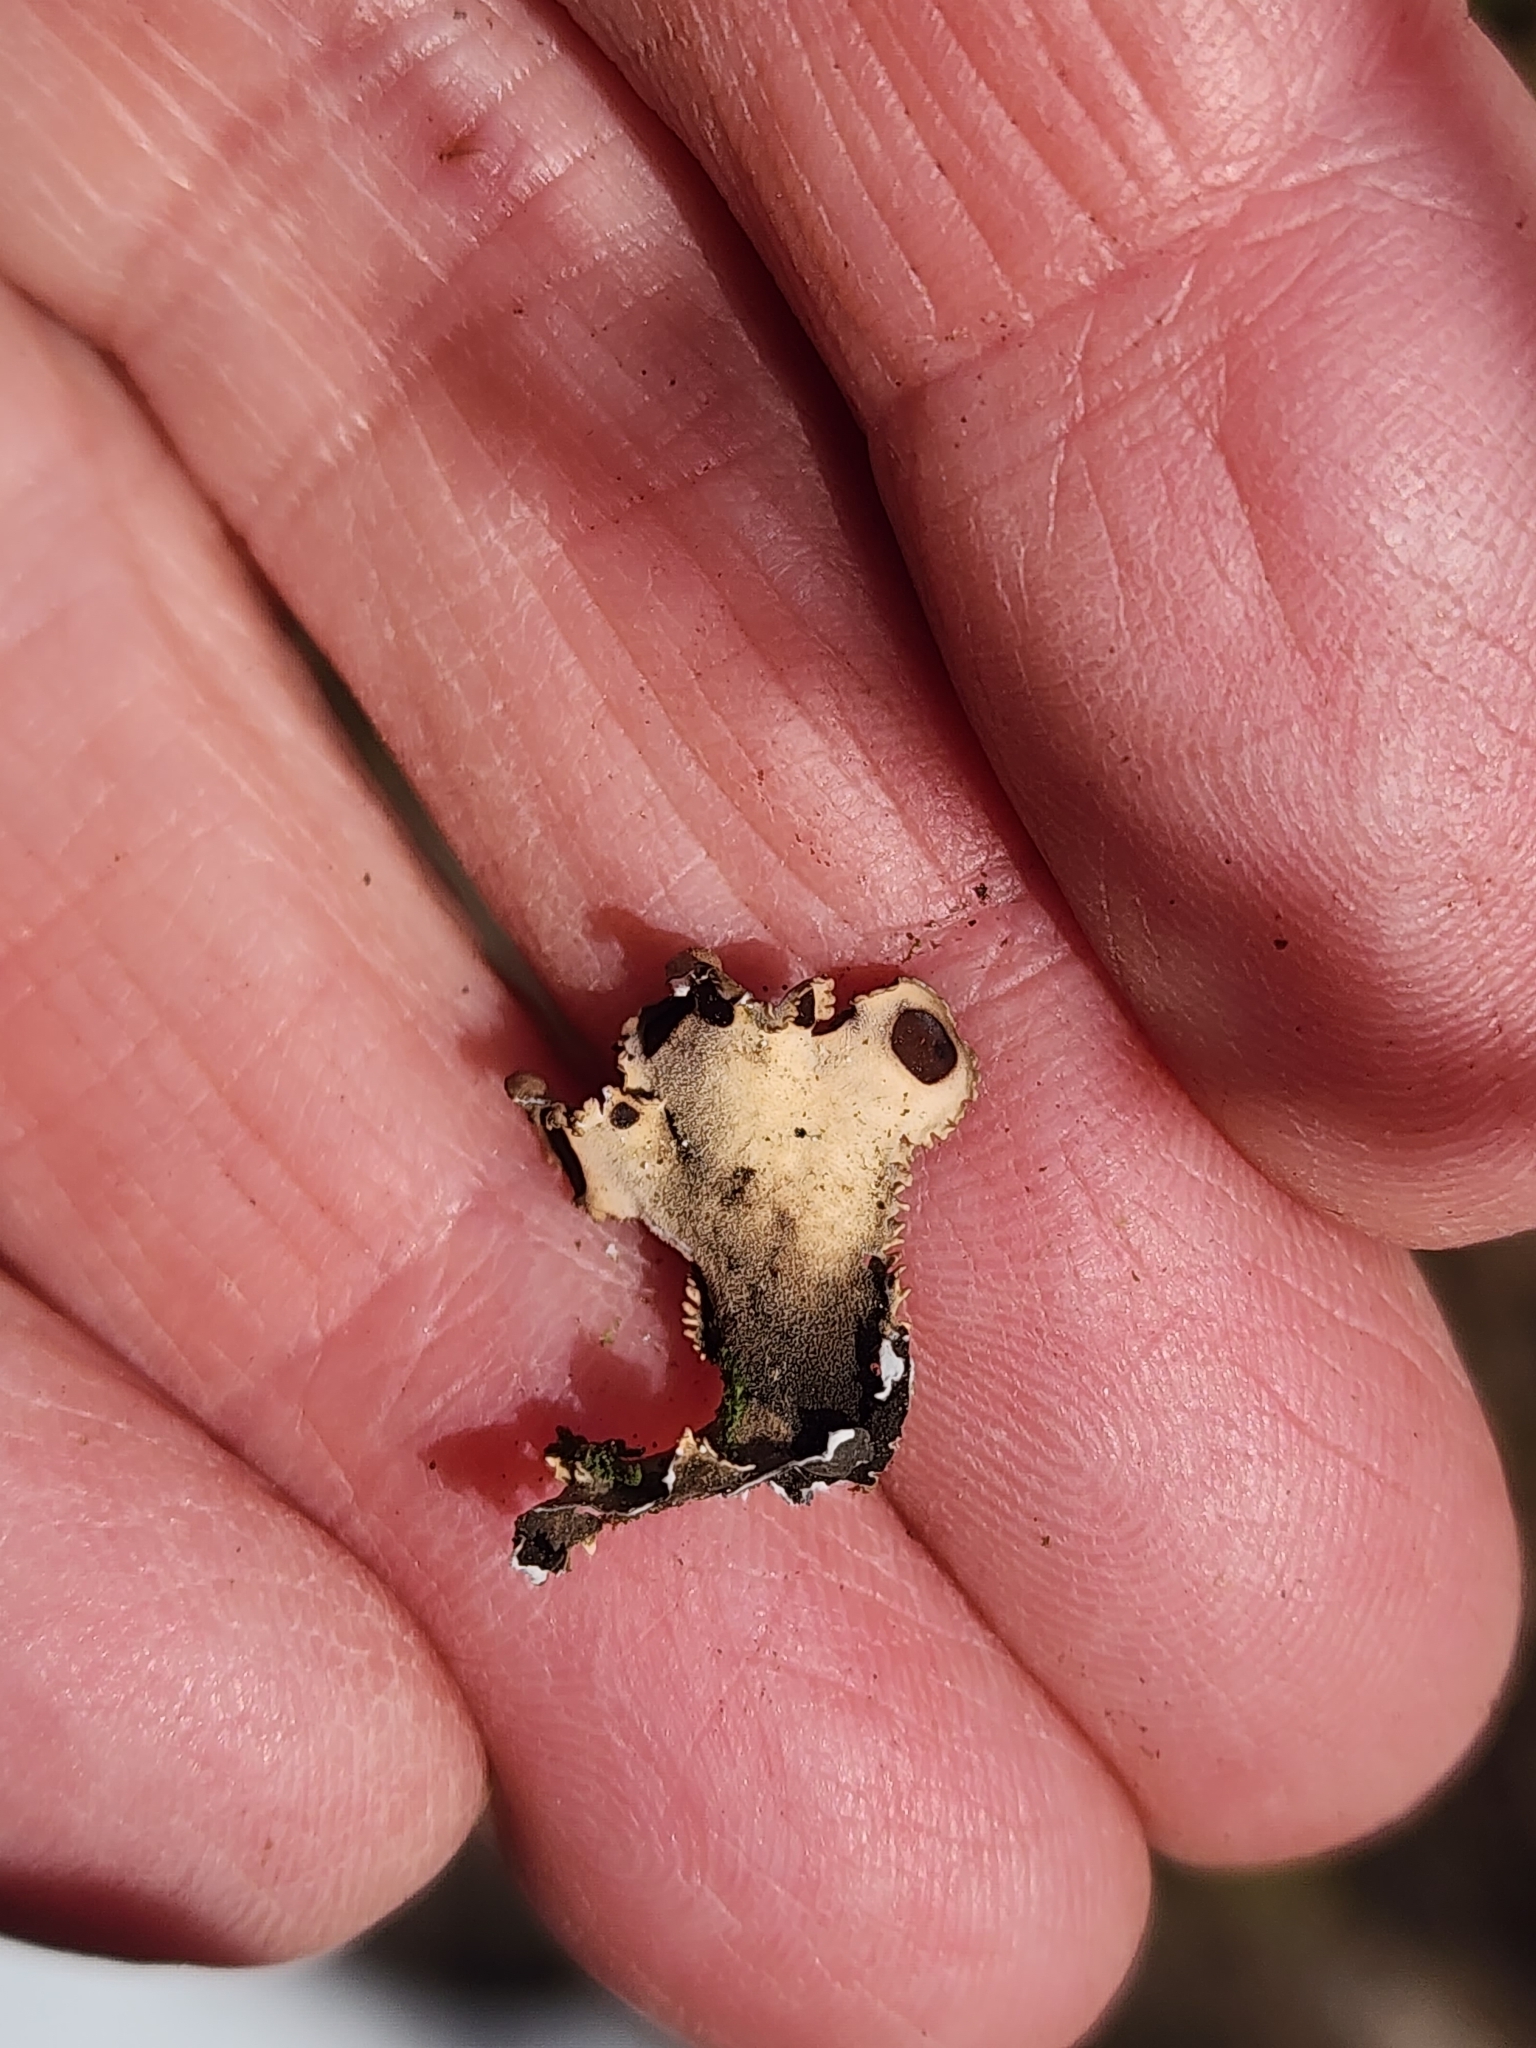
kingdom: Fungi
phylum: Ascomycota
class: Lecanoromycetes
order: Peltigerales
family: Nephromataceae
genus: Nephroma
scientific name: Nephroma helveticum
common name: Fringed kidney lichen
